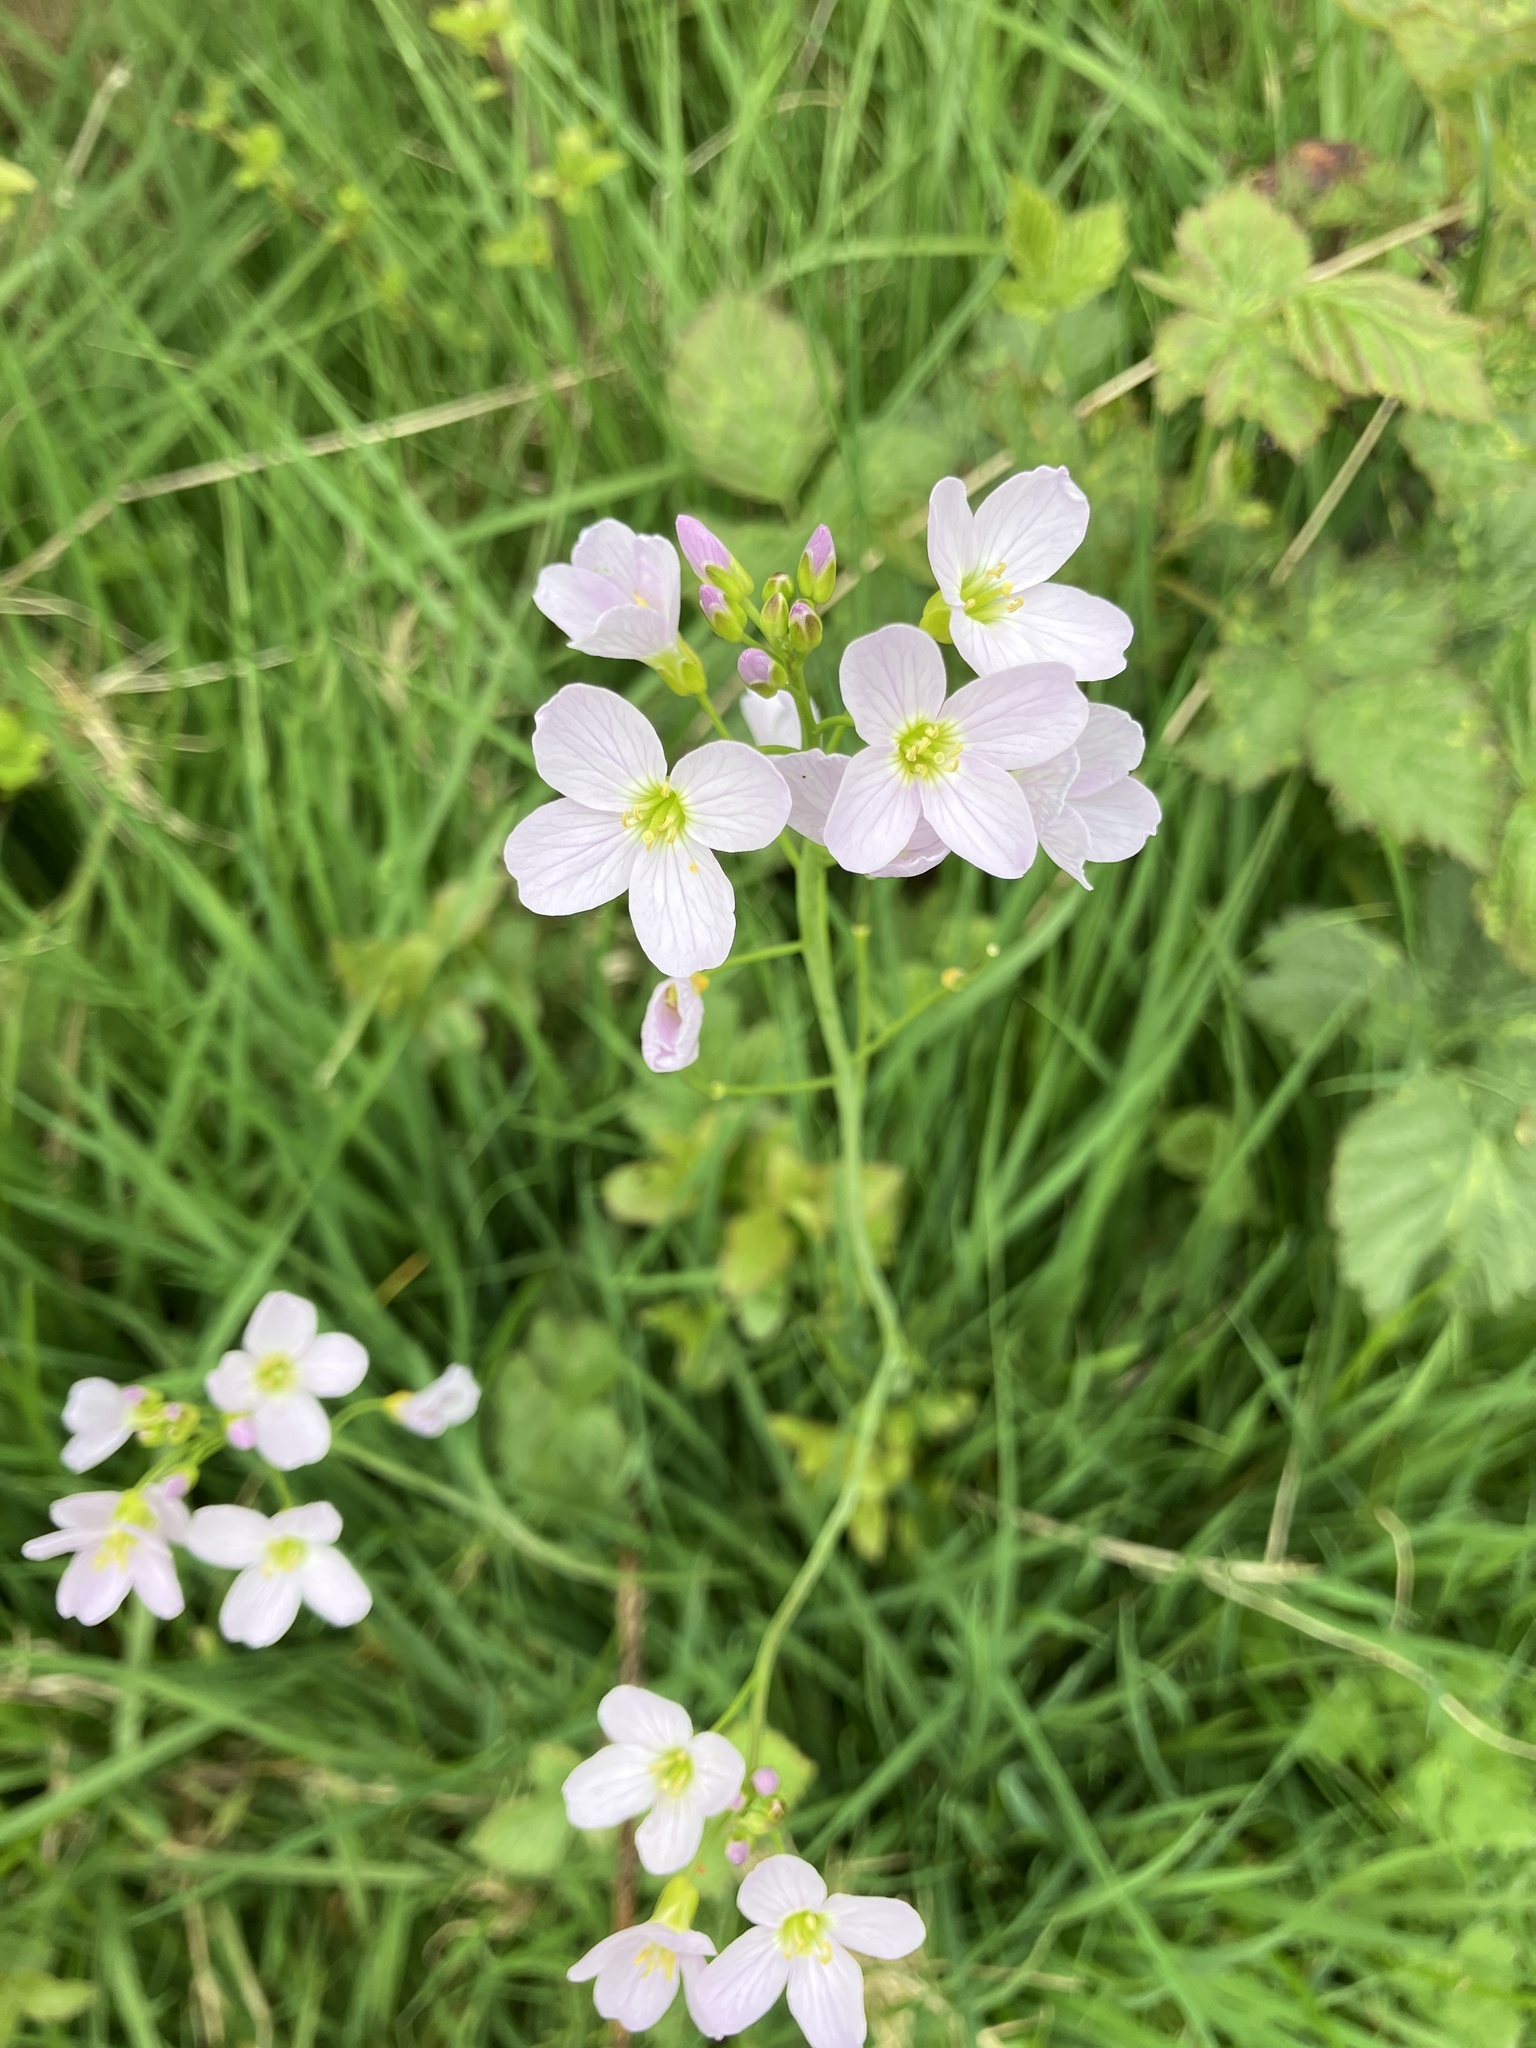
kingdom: Plantae
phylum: Tracheophyta
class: Magnoliopsida
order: Brassicales
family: Brassicaceae
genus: Cardamine
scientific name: Cardamine pratensis
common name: Cuckoo flower
